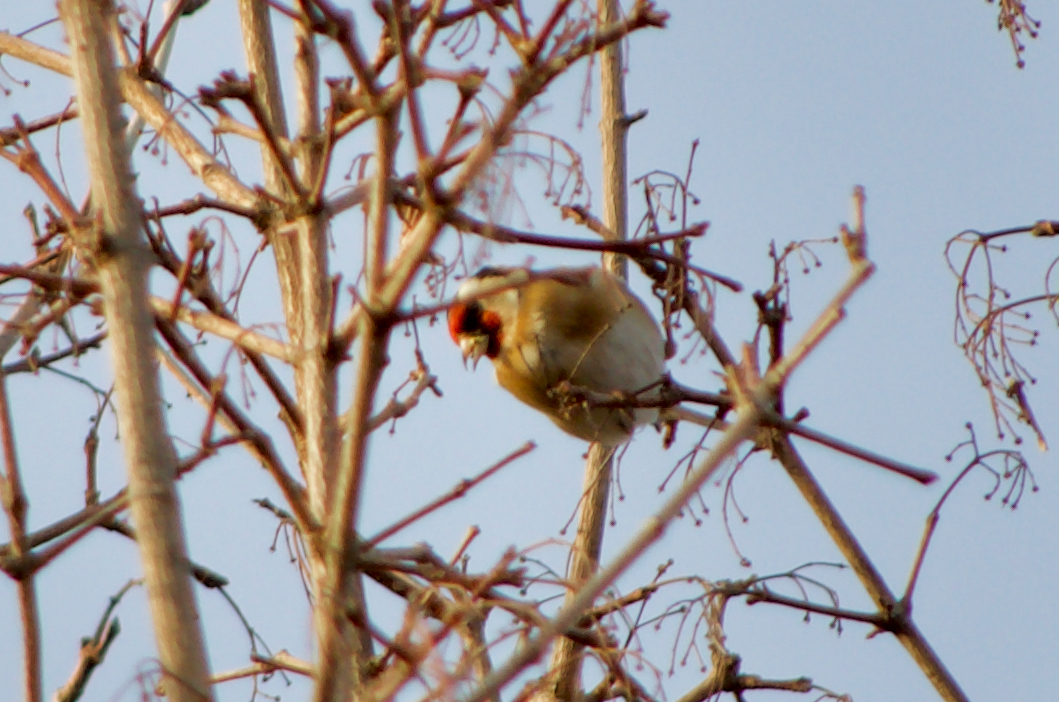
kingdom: Animalia
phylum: Chordata
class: Aves
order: Passeriformes
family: Fringillidae
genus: Carduelis
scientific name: Carduelis carduelis
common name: European goldfinch
